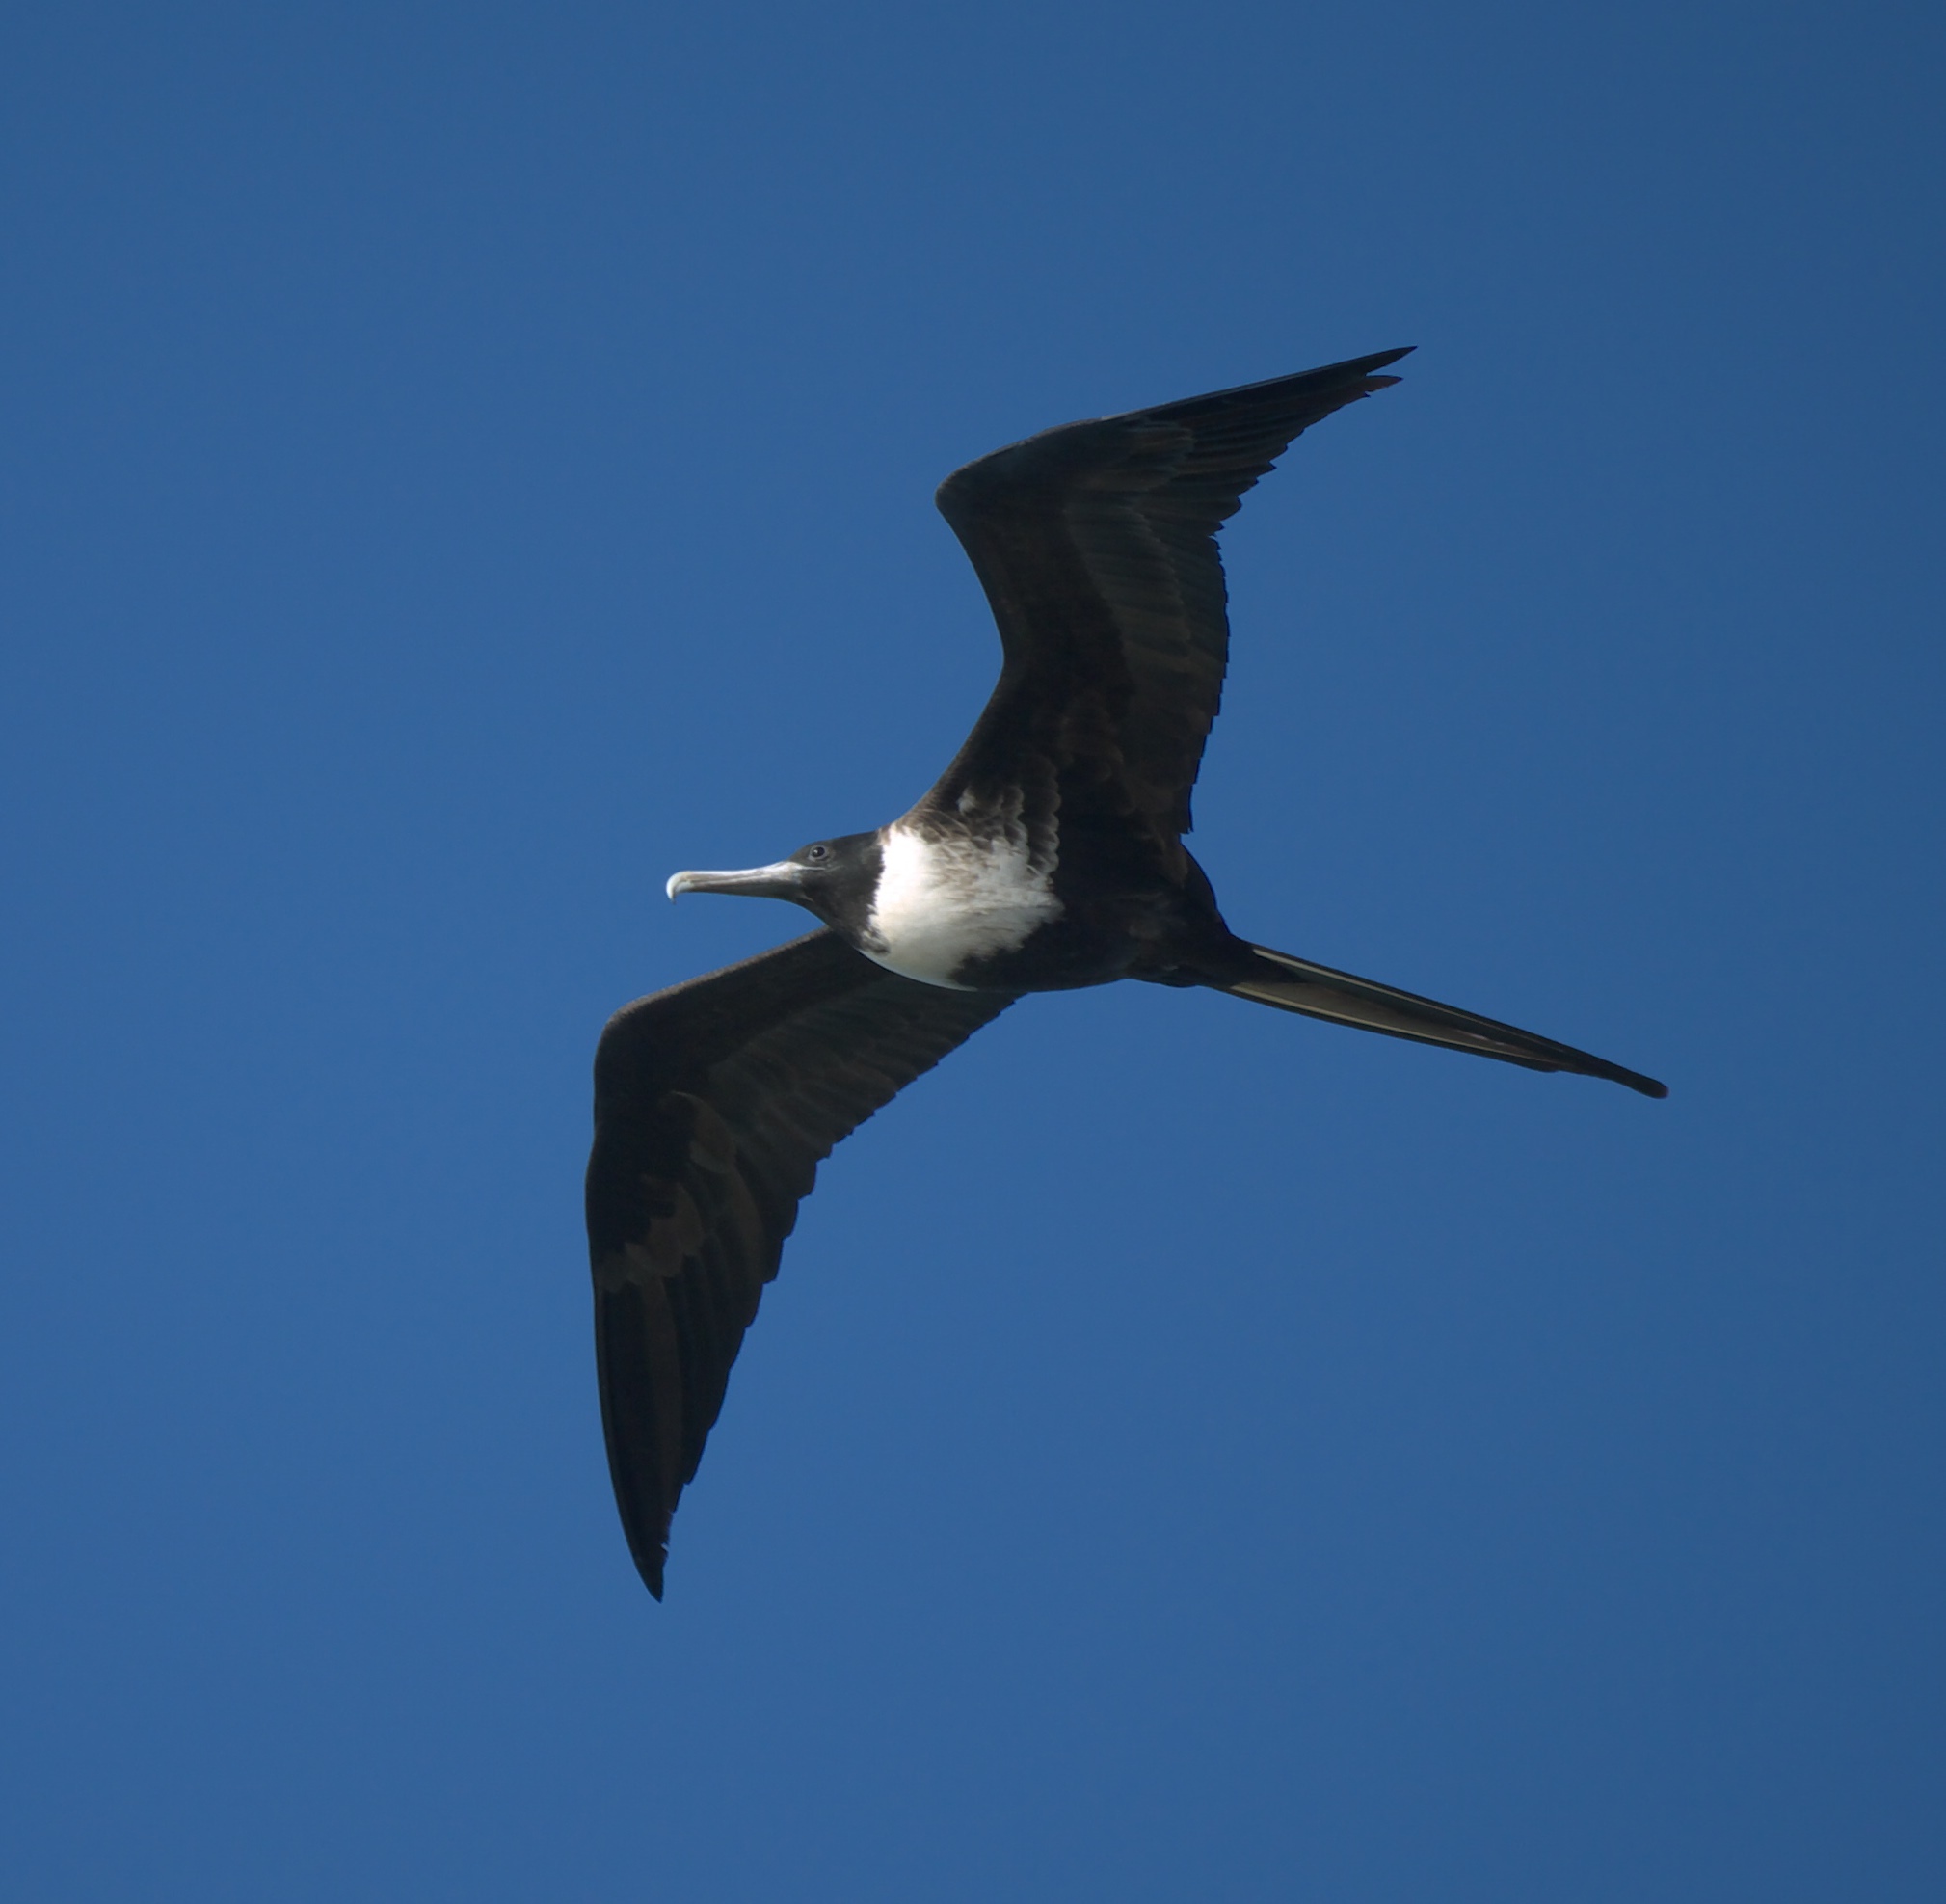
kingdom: Animalia
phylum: Chordata
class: Aves
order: Suliformes
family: Fregatidae
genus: Fregata
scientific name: Fregata magnificens
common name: Magnificent frigatebird
